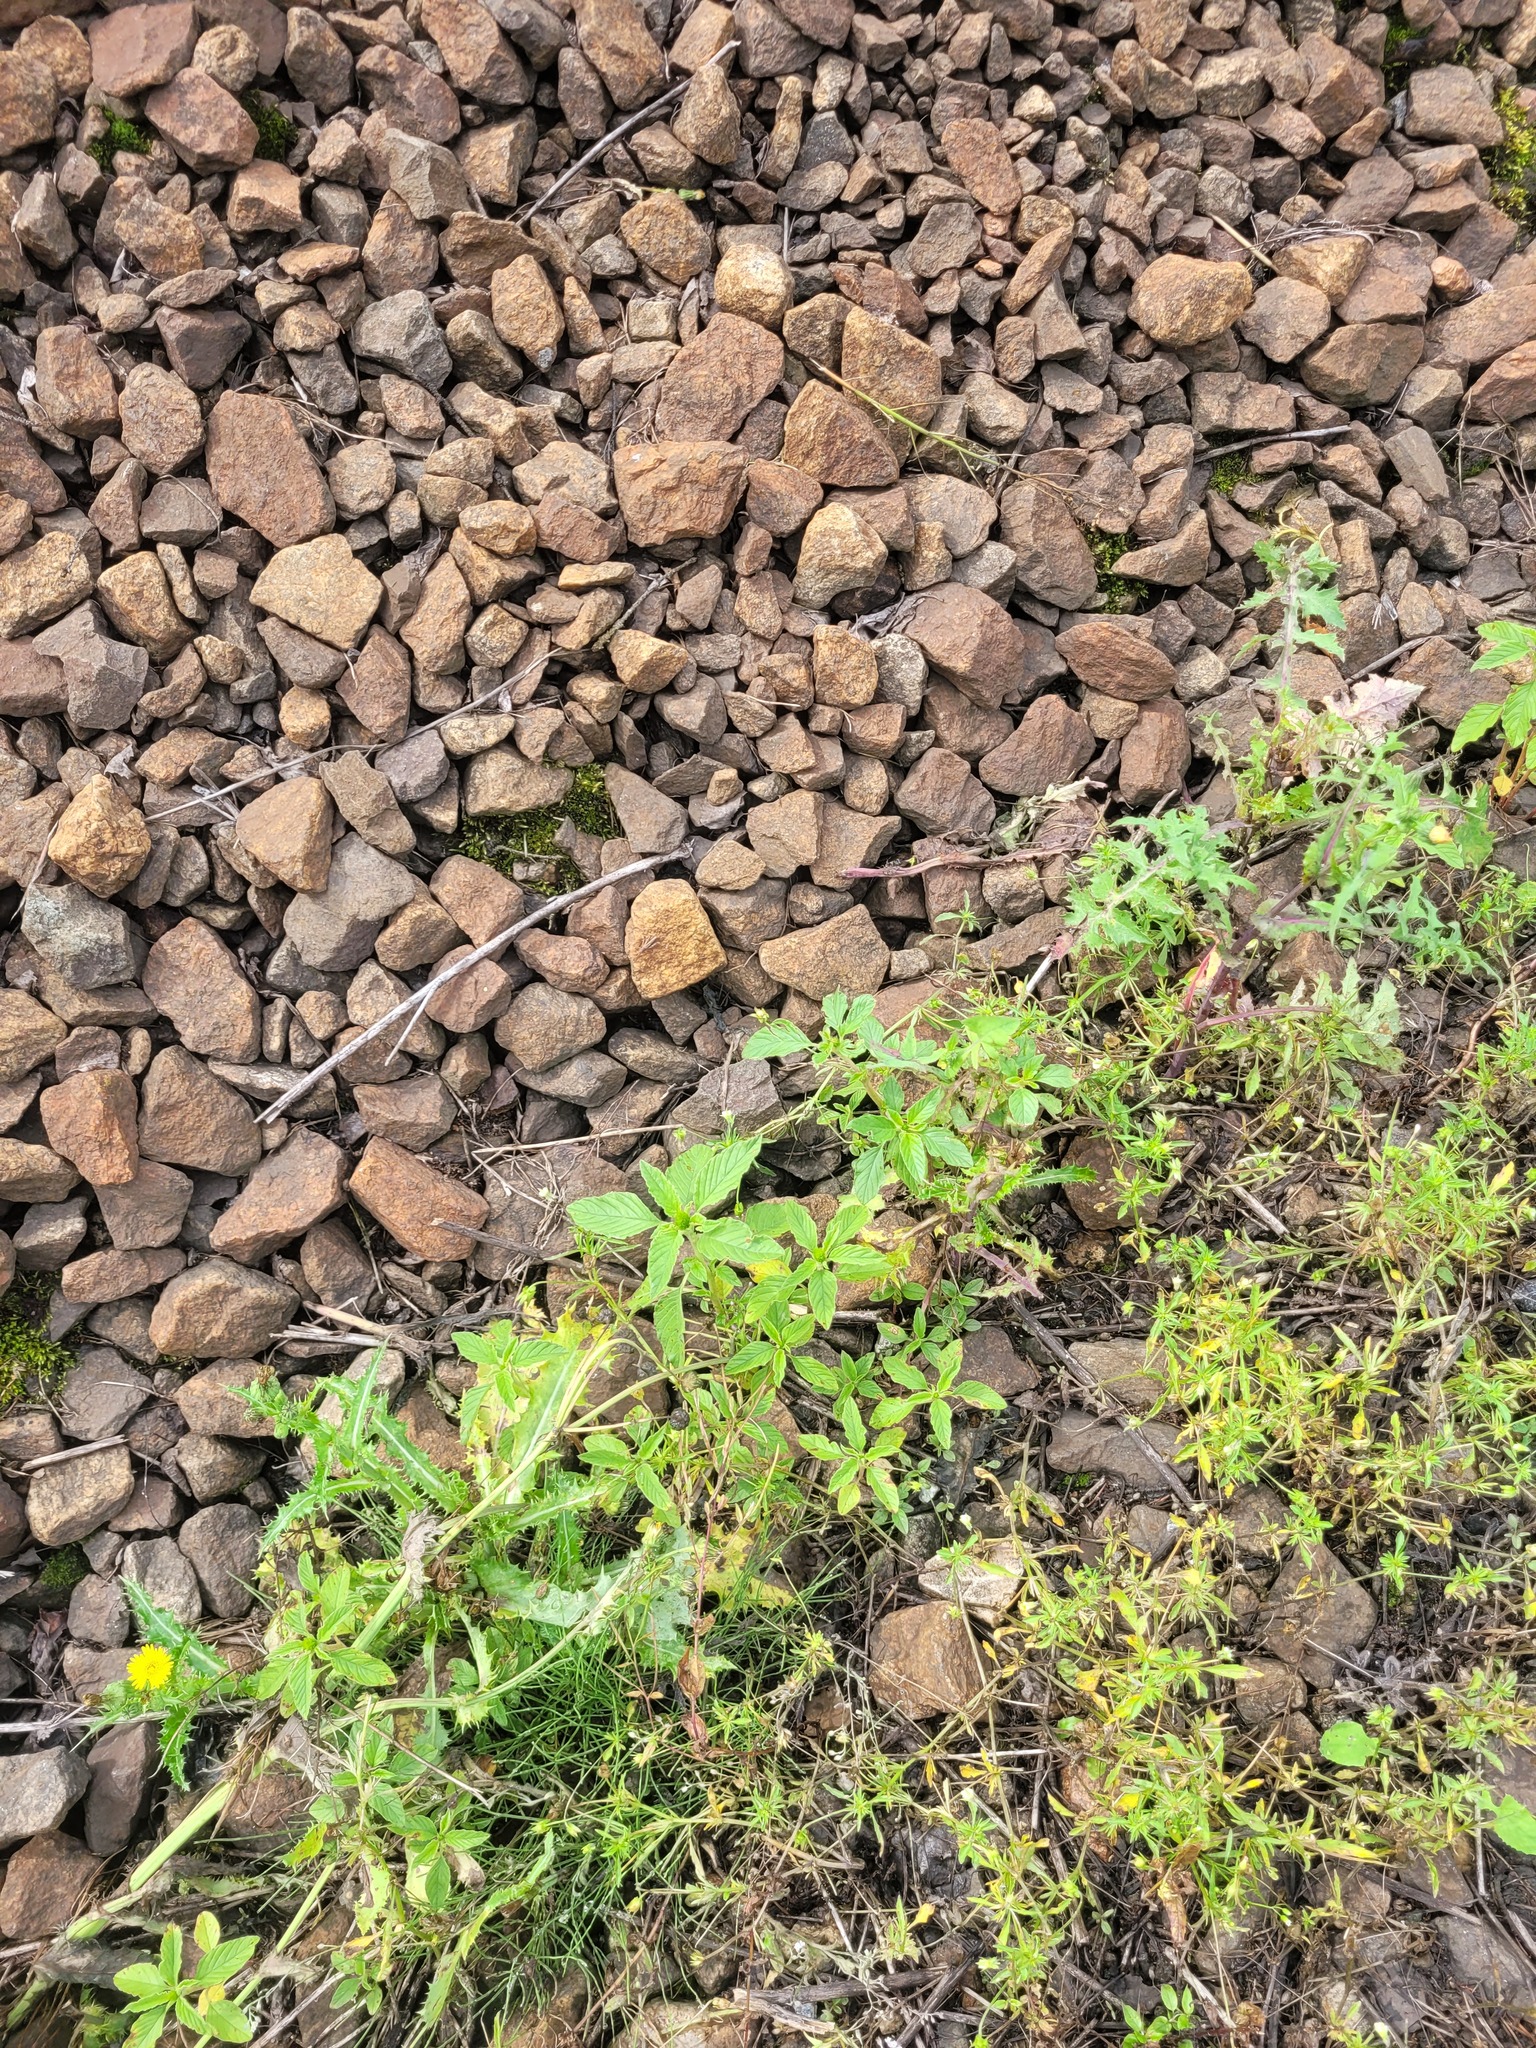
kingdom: Plantae
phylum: Tracheophyta
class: Magnoliopsida
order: Caryophyllales
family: Amaranthaceae
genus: Amaranthus
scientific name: Amaranthus retroflexus
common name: Redroot amaranth
